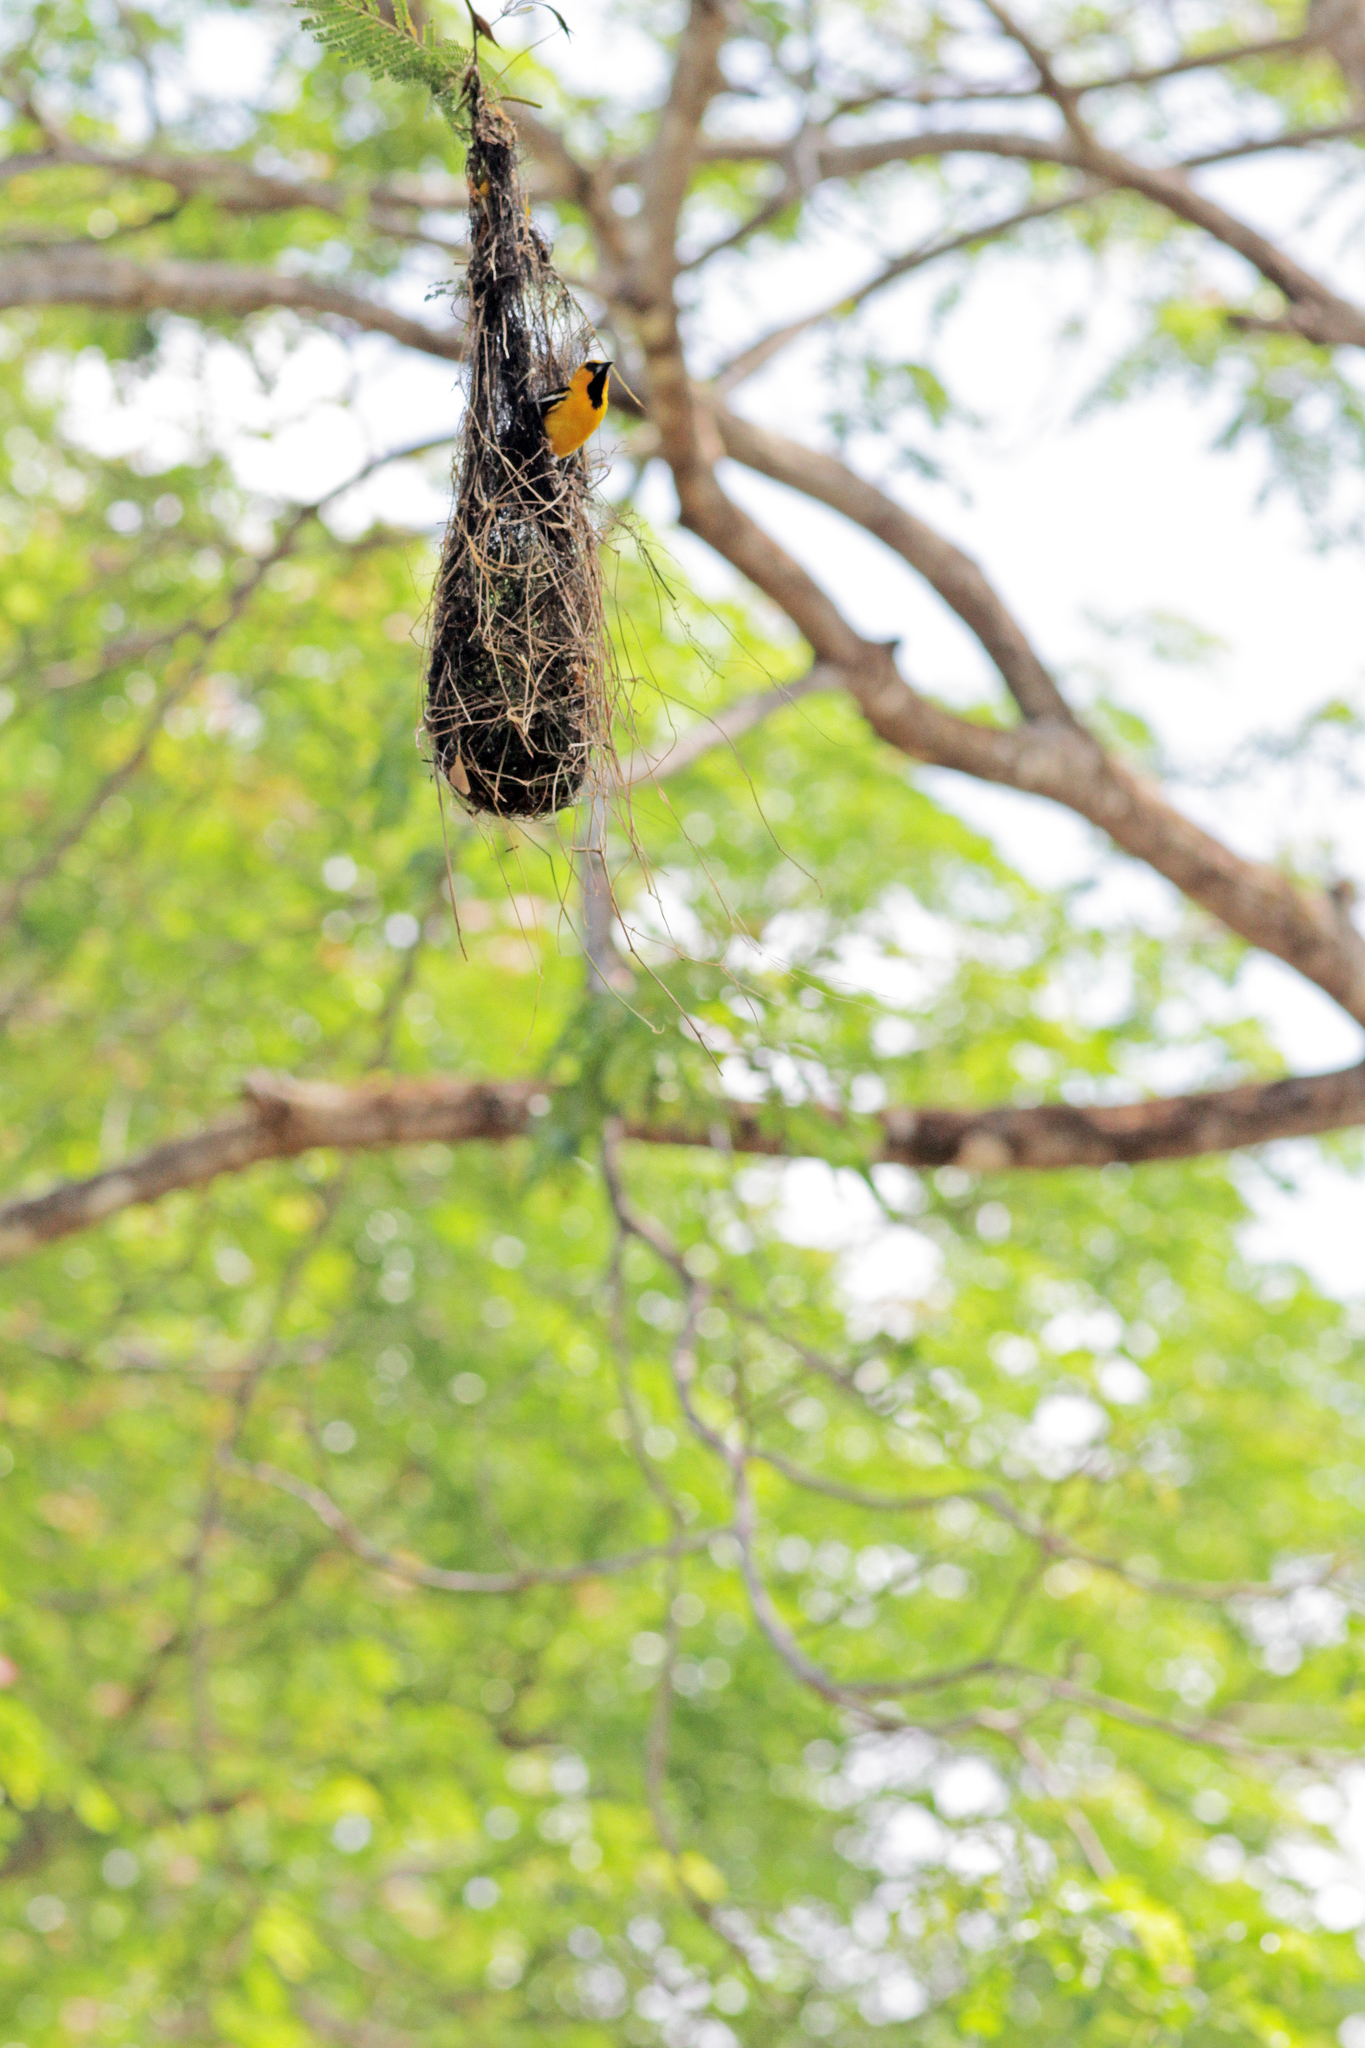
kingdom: Animalia
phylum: Chordata
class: Aves
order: Passeriformes
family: Icteridae
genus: Icterus
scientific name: Icterus pustulatus
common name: Streak-backed oriole
